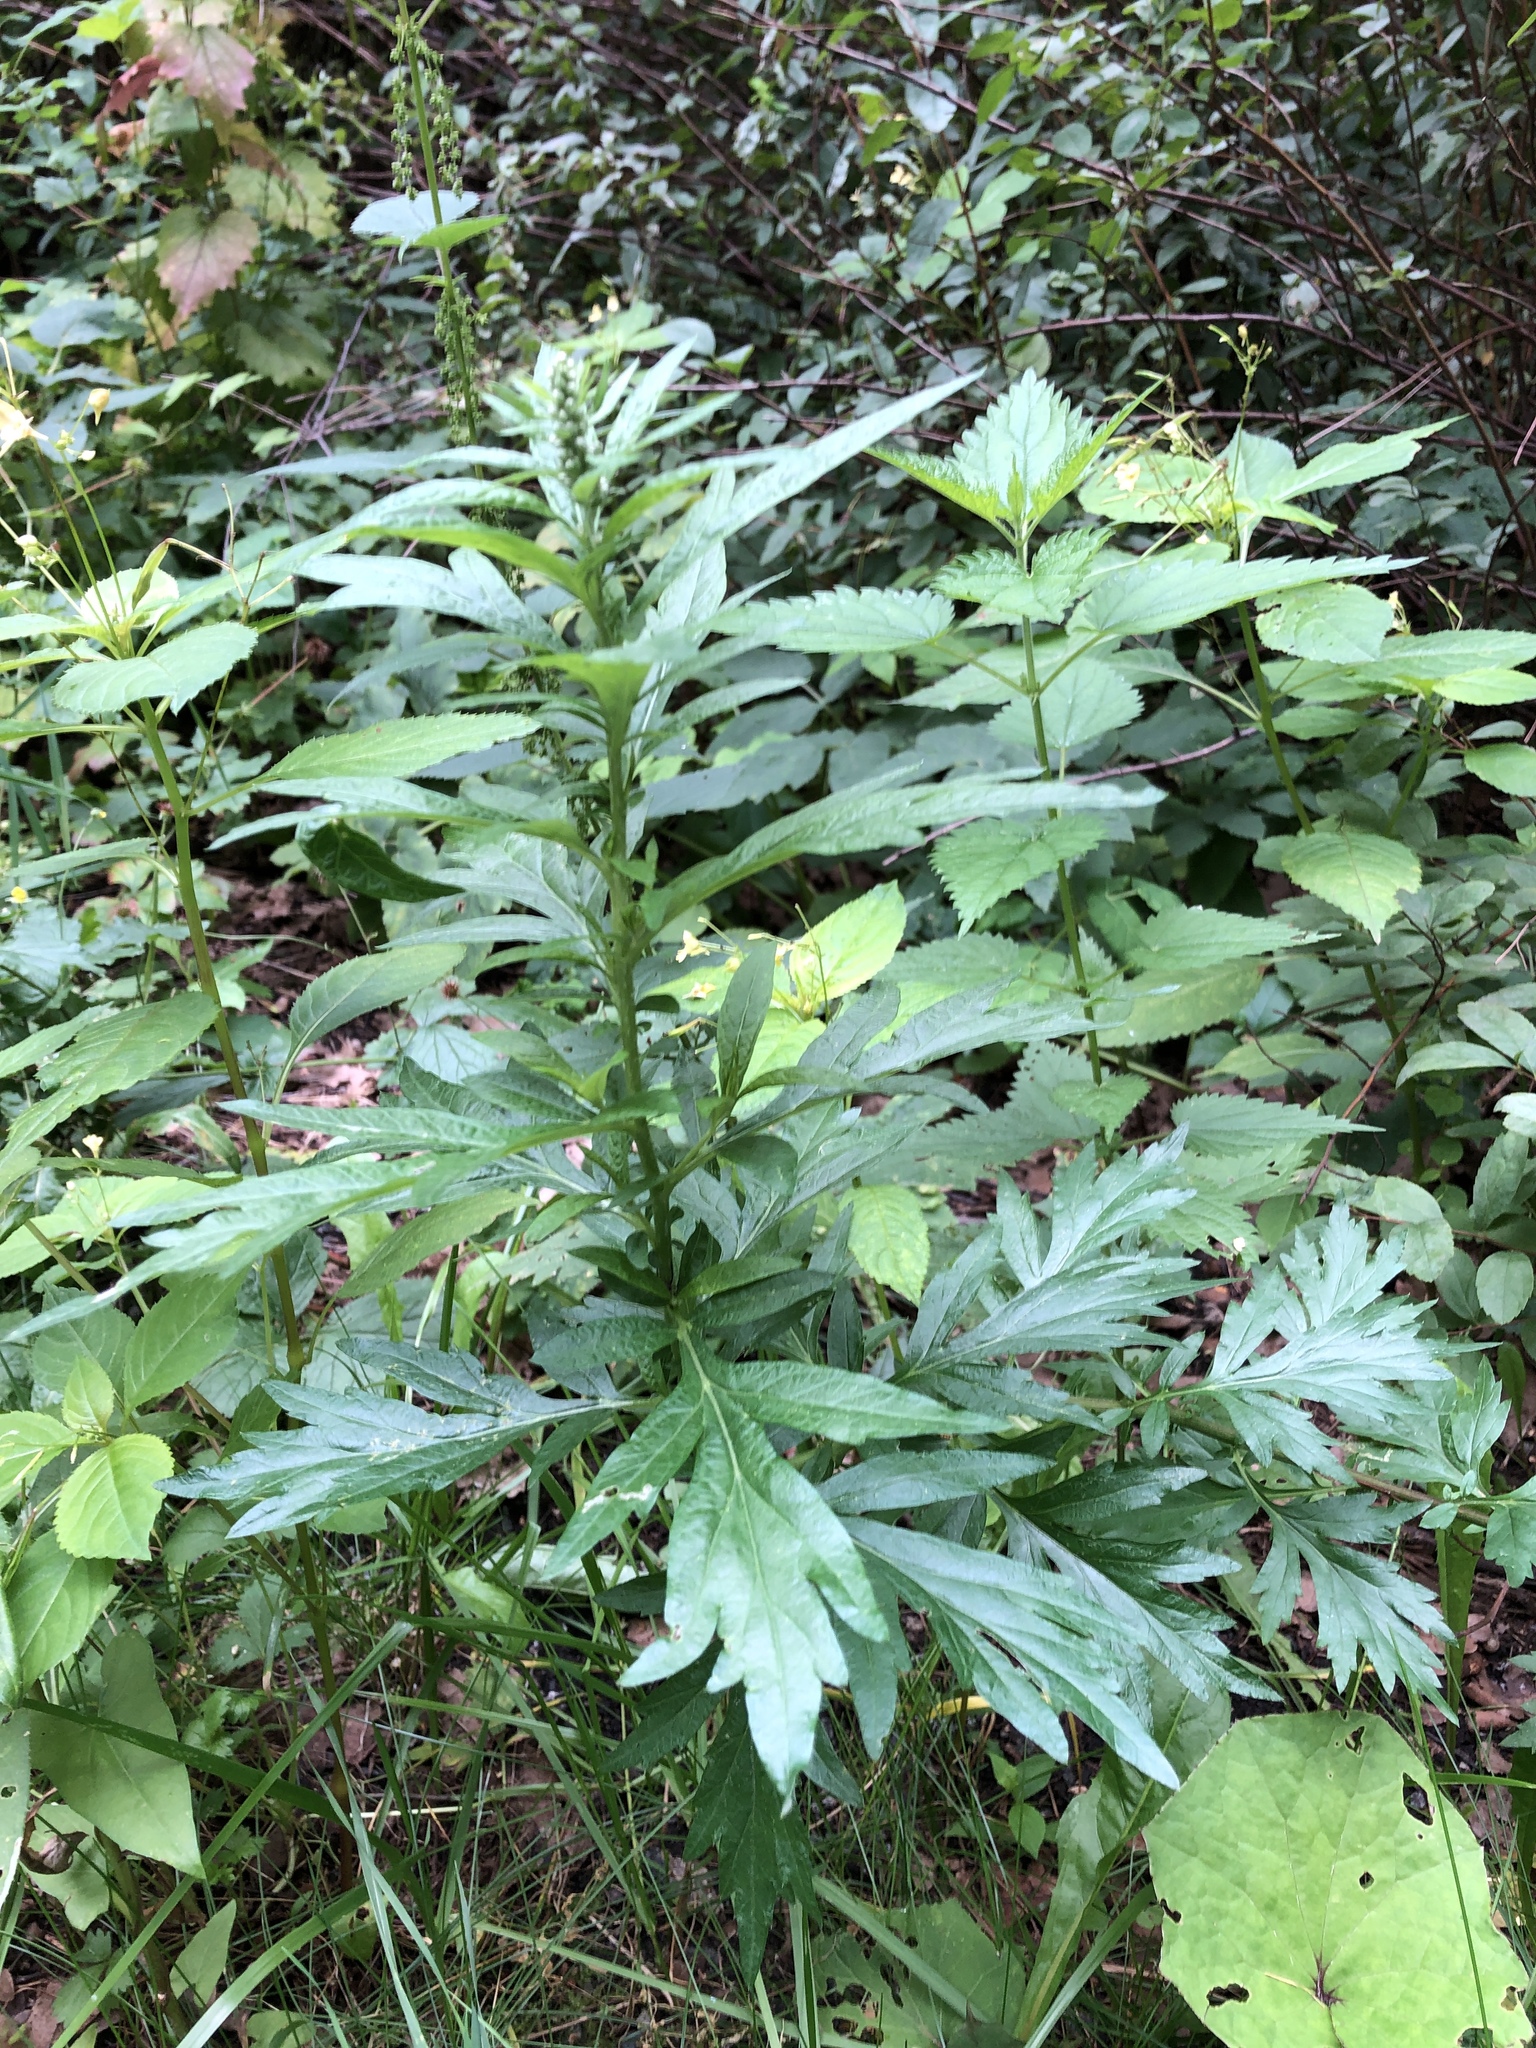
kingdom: Plantae
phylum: Tracheophyta
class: Magnoliopsida
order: Asterales
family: Asteraceae
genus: Artemisia
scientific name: Artemisia vulgaris
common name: Mugwort
